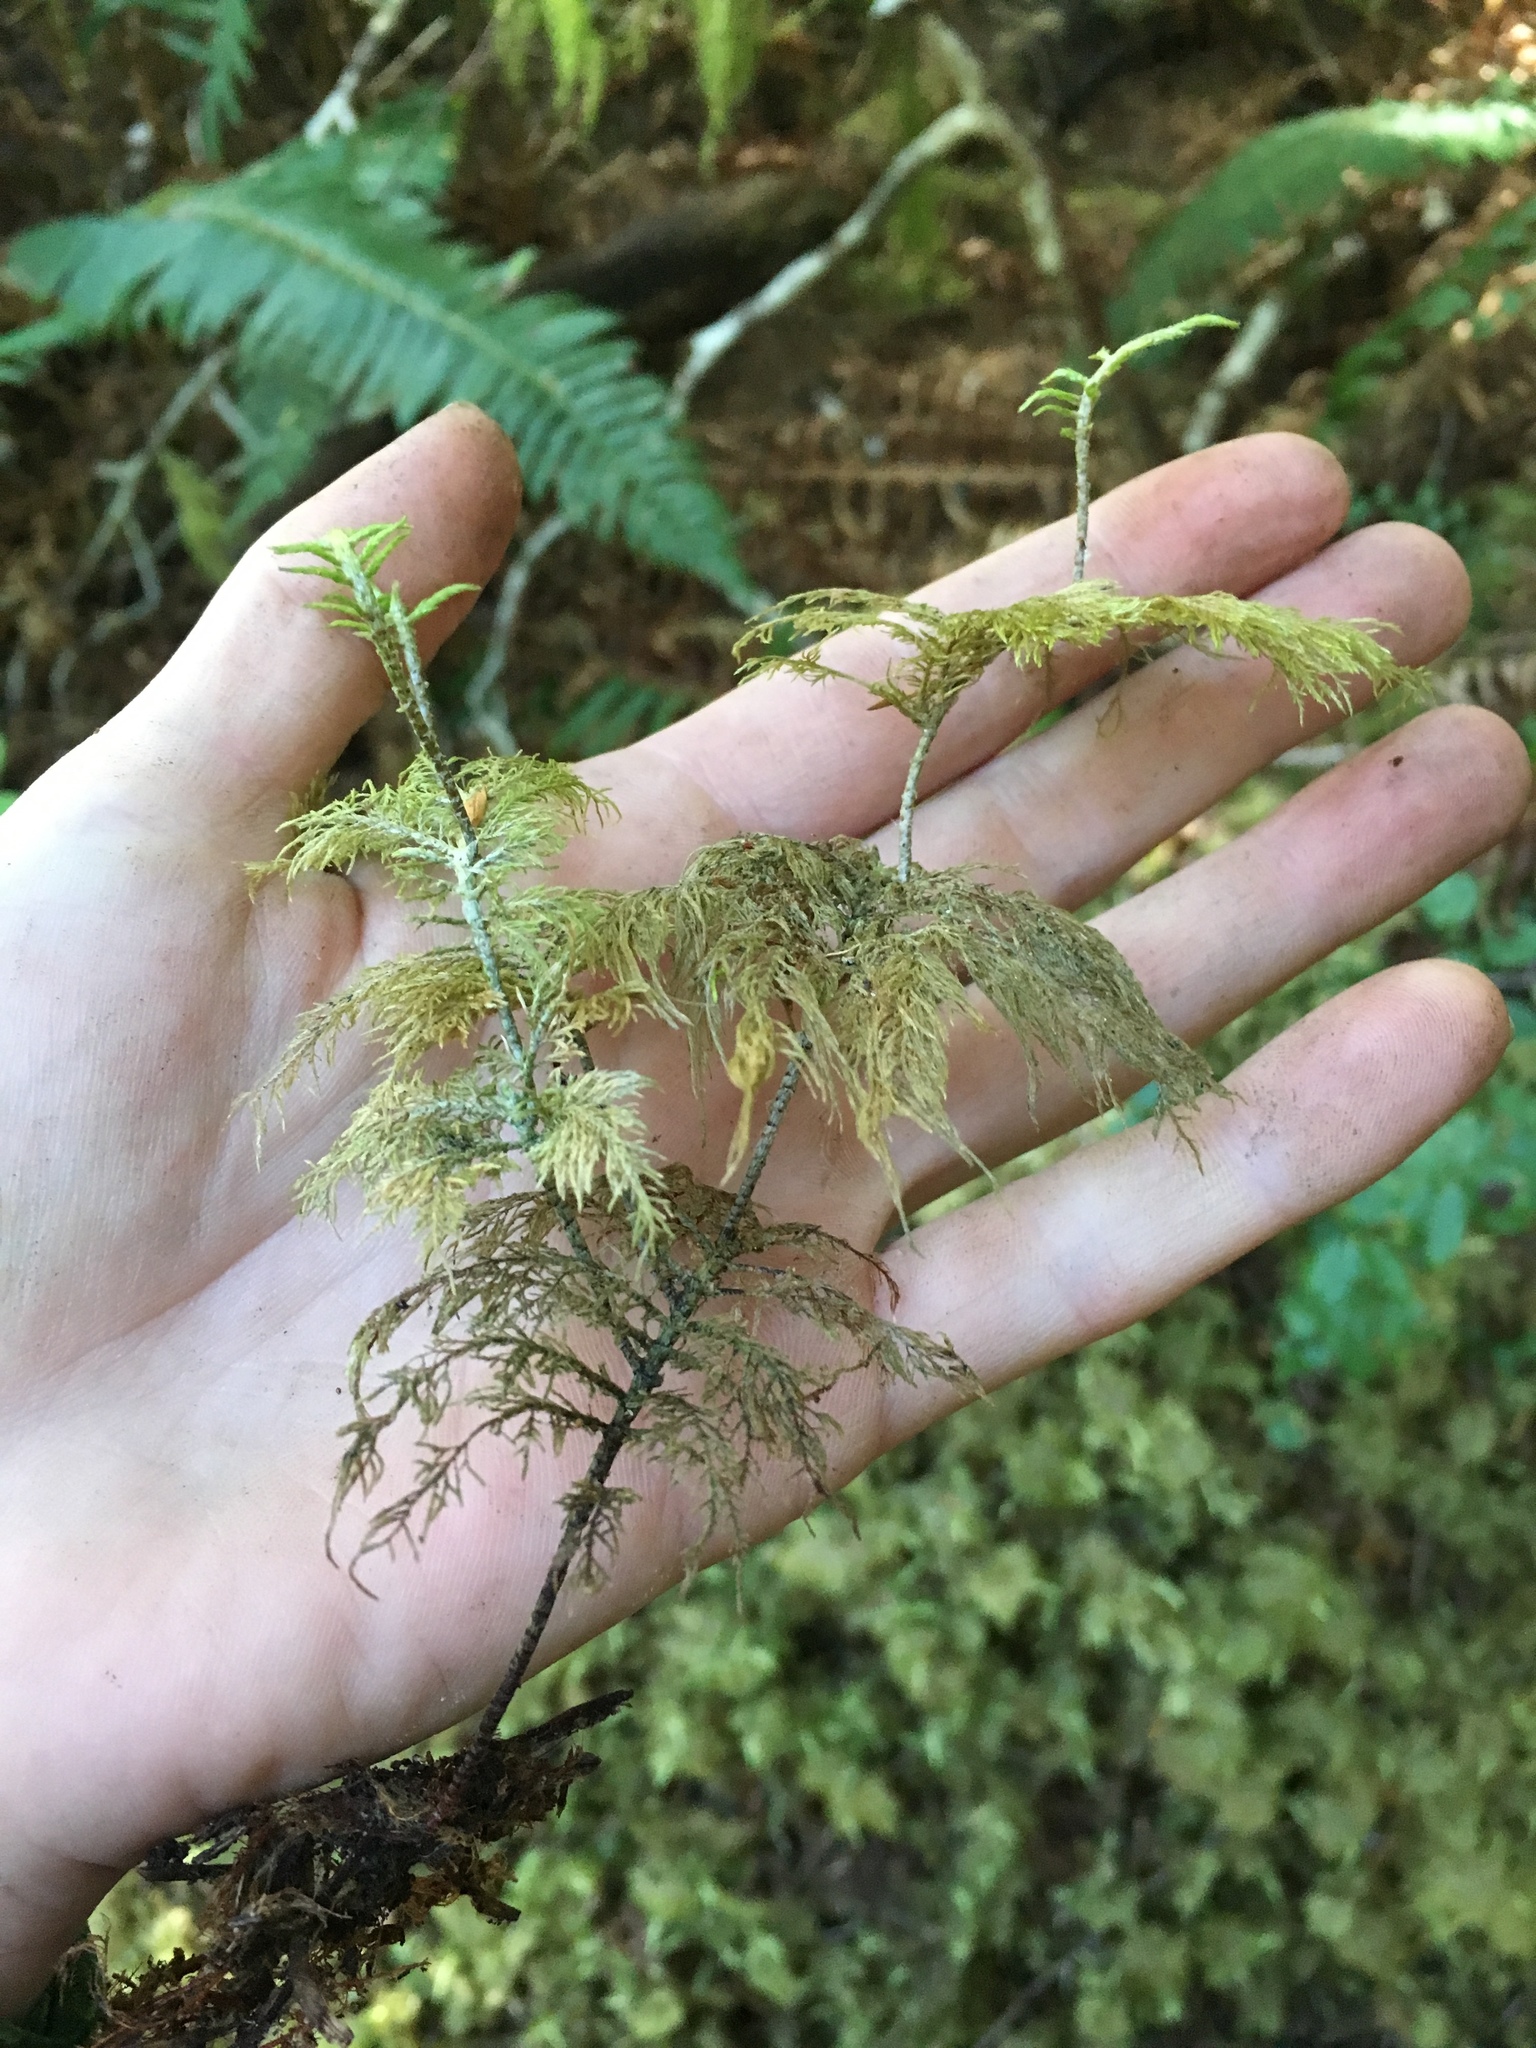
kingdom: Plantae
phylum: Bryophyta
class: Bryopsida
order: Hypnales
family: Hylocomiaceae
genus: Hylocomium
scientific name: Hylocomium splendens
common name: Stairstep moss
